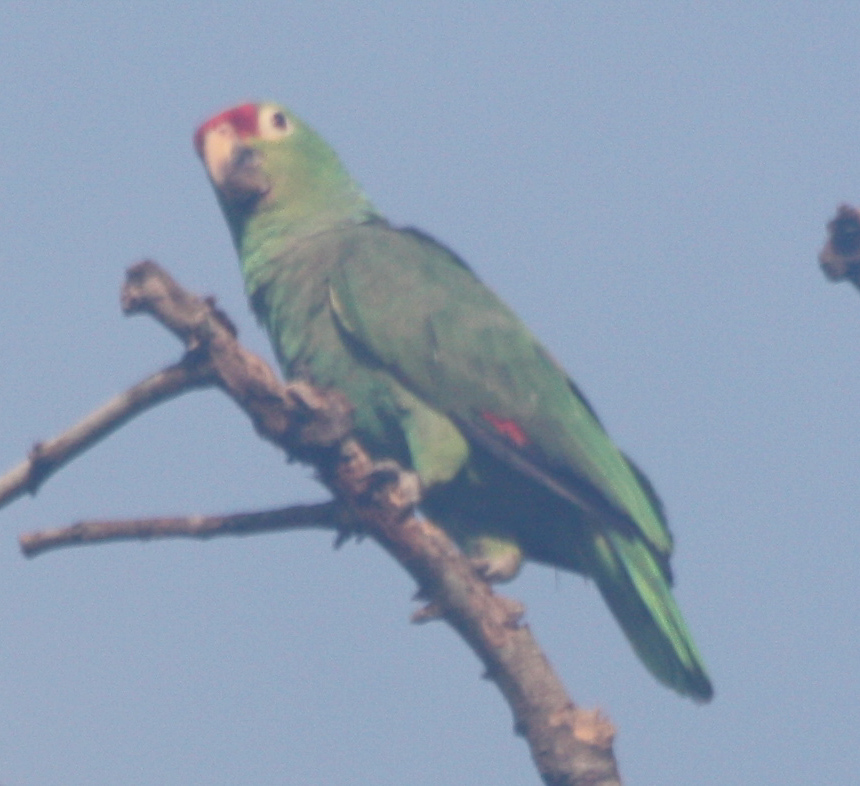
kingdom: Animalia
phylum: Chordata
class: Aves
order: Psittaciformes
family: Psittacidae
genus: Amazona
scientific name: Amazona autumnalis
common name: Red-lored amazon
